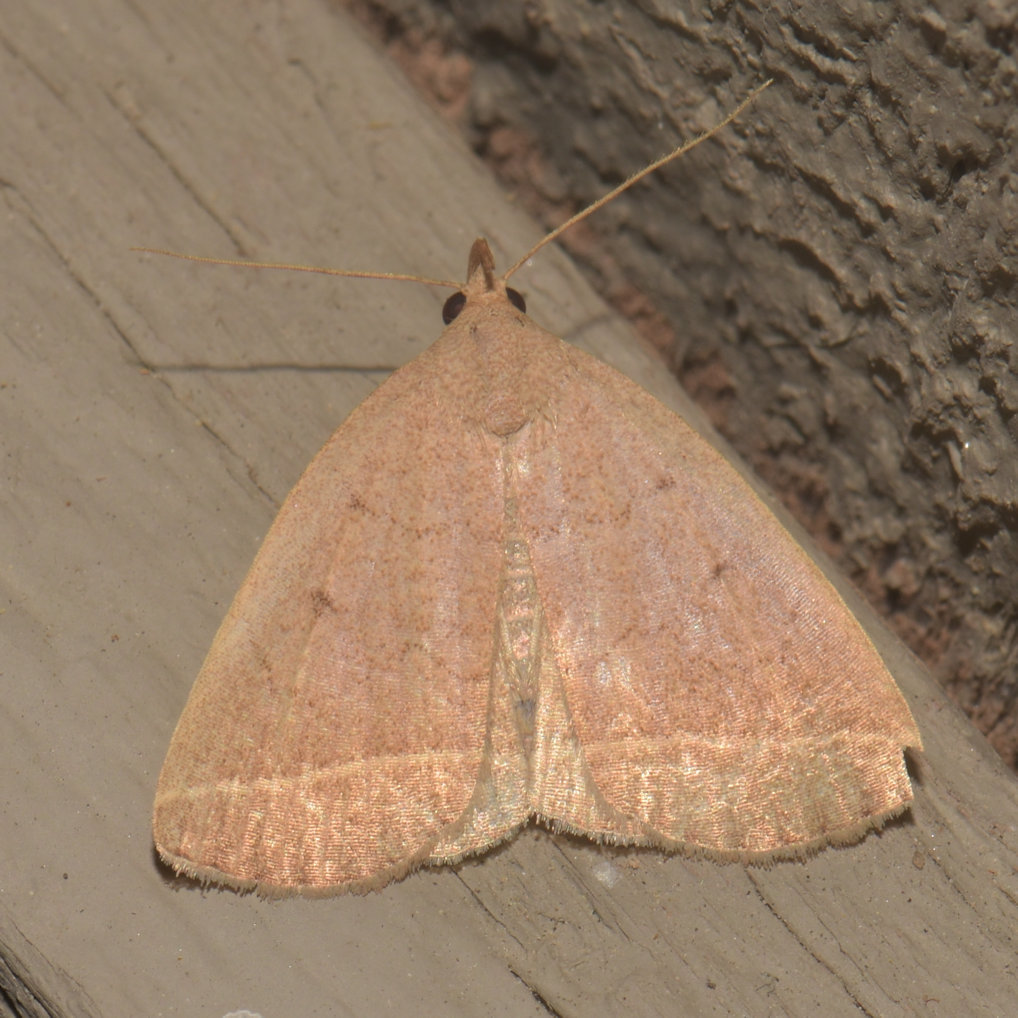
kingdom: Animalia
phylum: Arthropoda
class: Insecta
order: Lepidoptera
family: Erebidae
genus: Zanclognatha
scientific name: Zanclognatha marcidilinea
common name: Yellowish fan-foot
